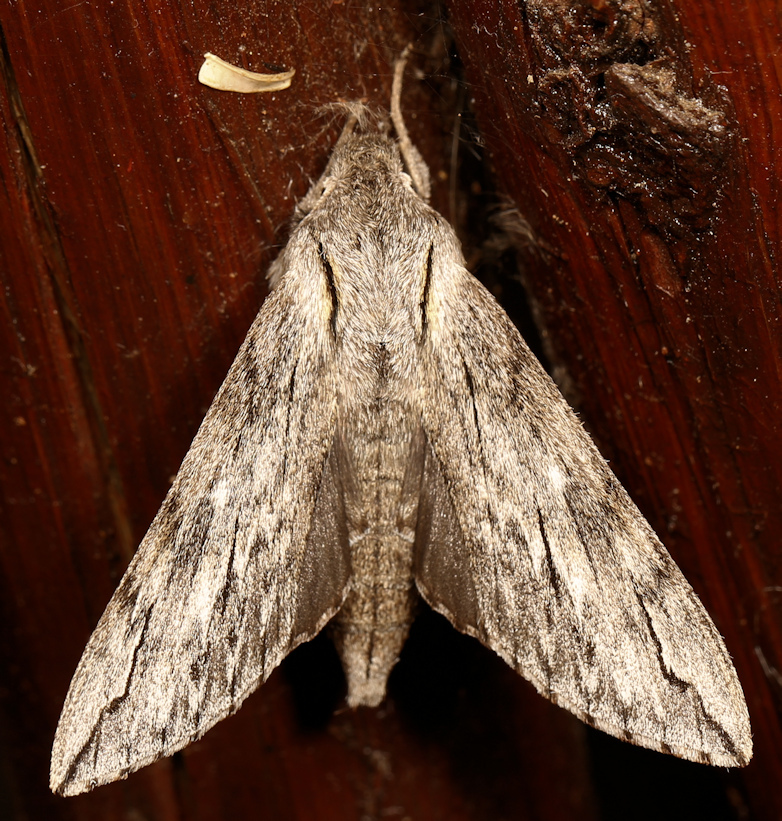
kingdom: Animalia
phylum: Arthropoda
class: Insecta
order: Lepidoptera
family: Sphingidae
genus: Oligographa
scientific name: Oligographa juniperi
